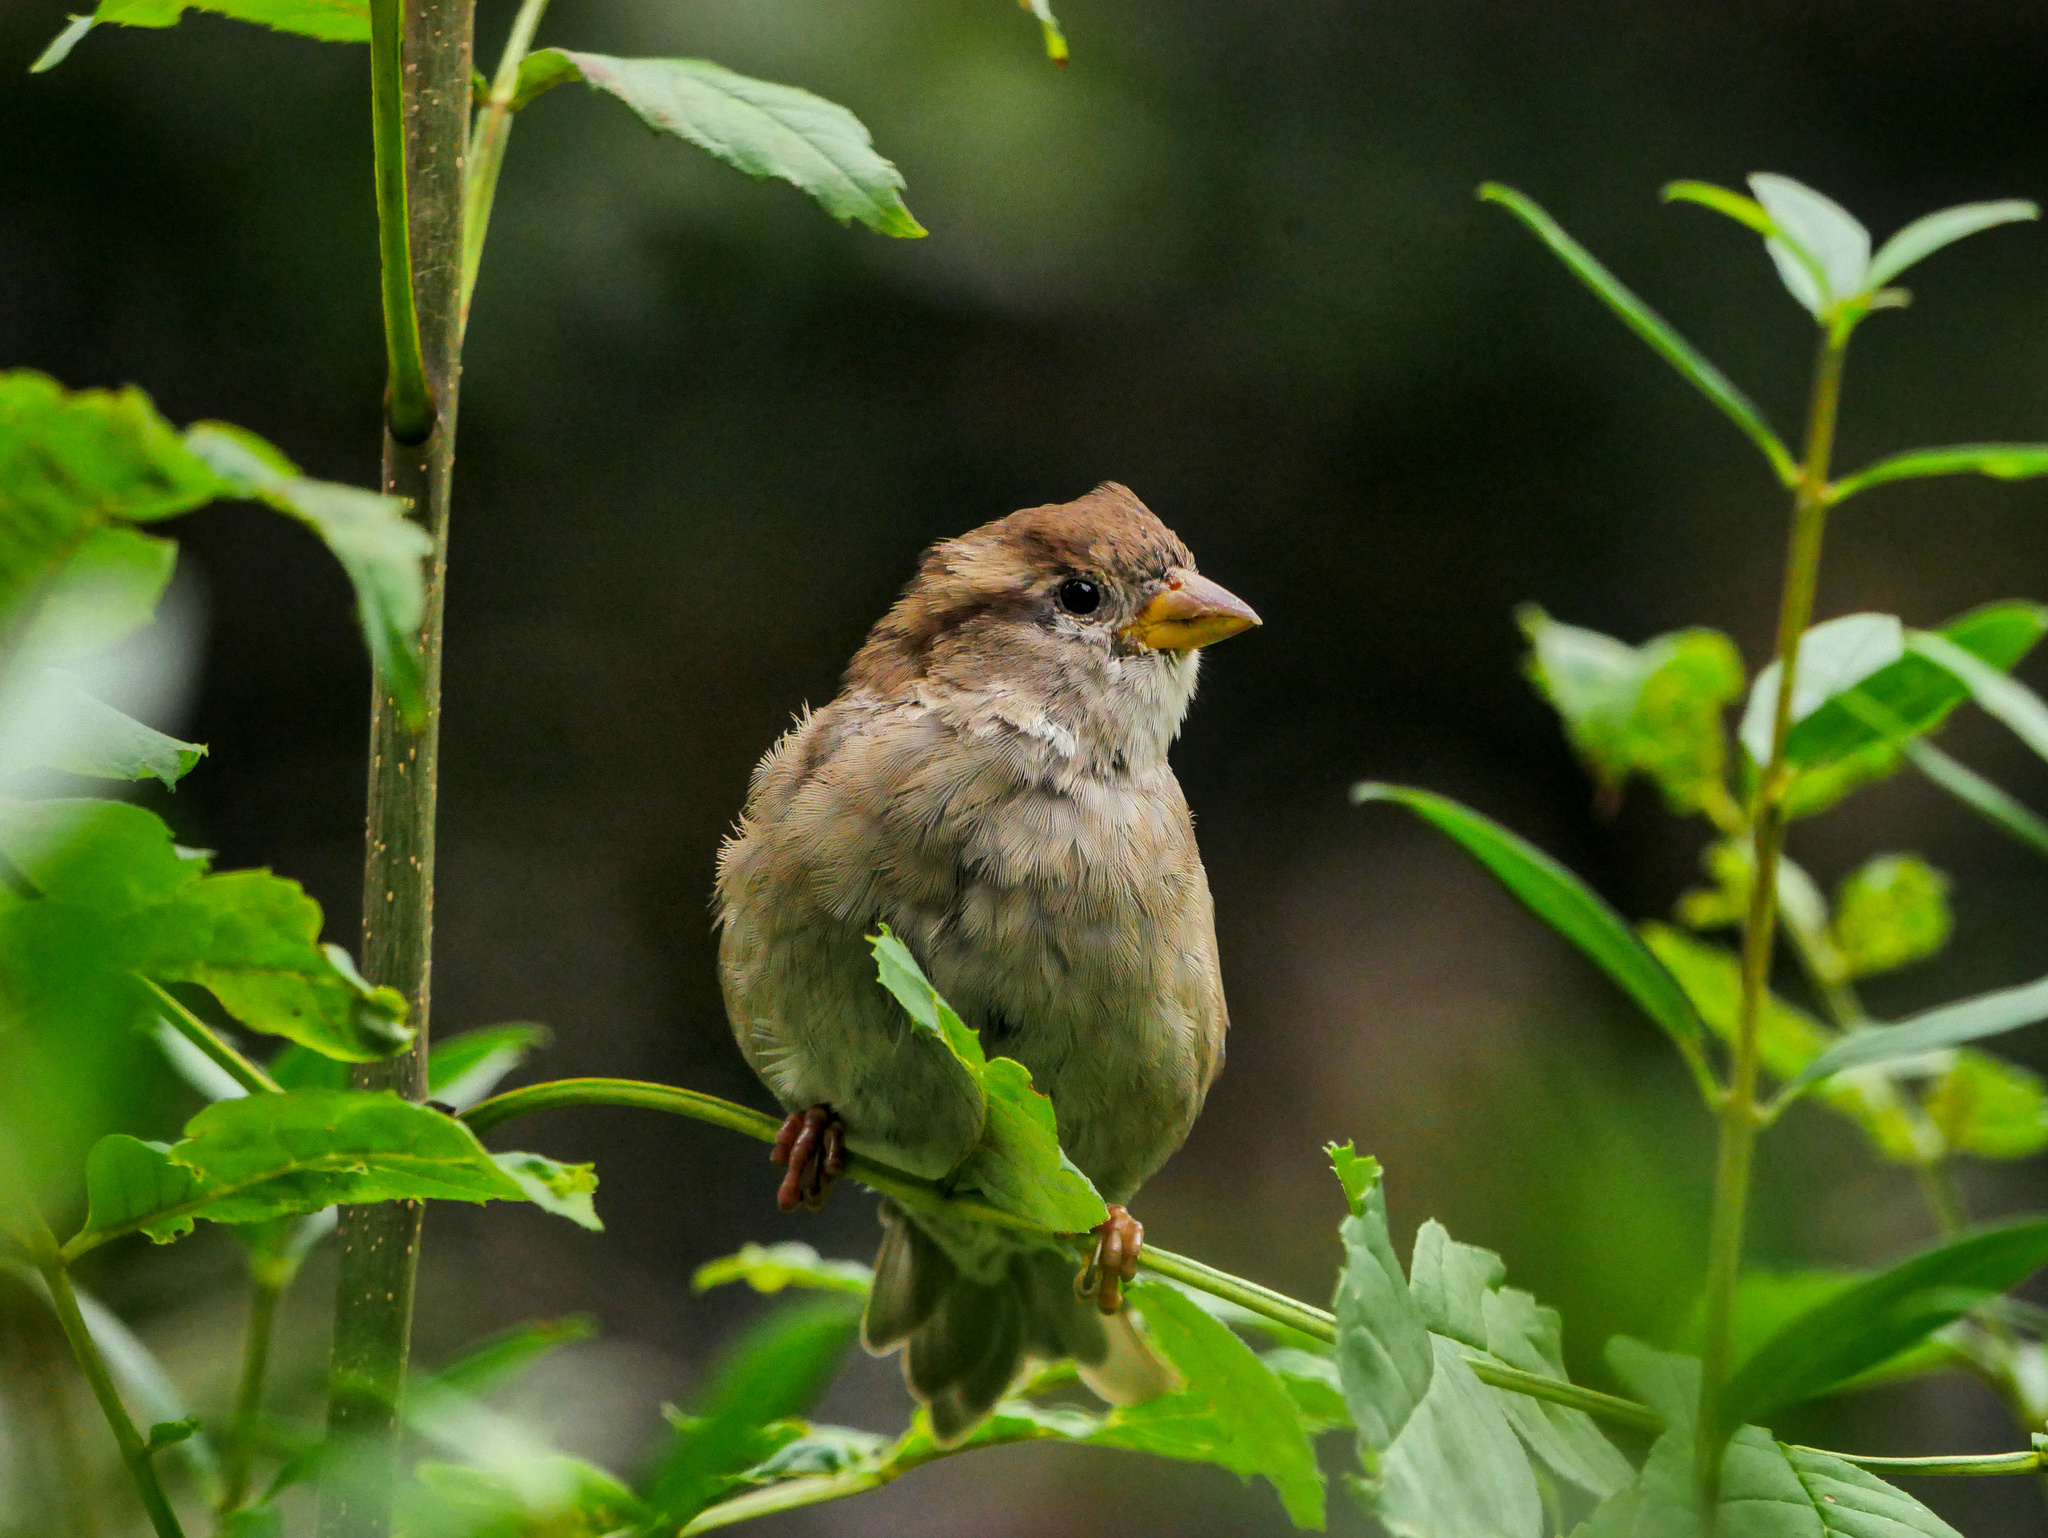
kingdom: Animalia
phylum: Chordata
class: Aves
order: Passeriformes
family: Passeridae
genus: Passer
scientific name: Passer domesticus
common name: House sparrow
